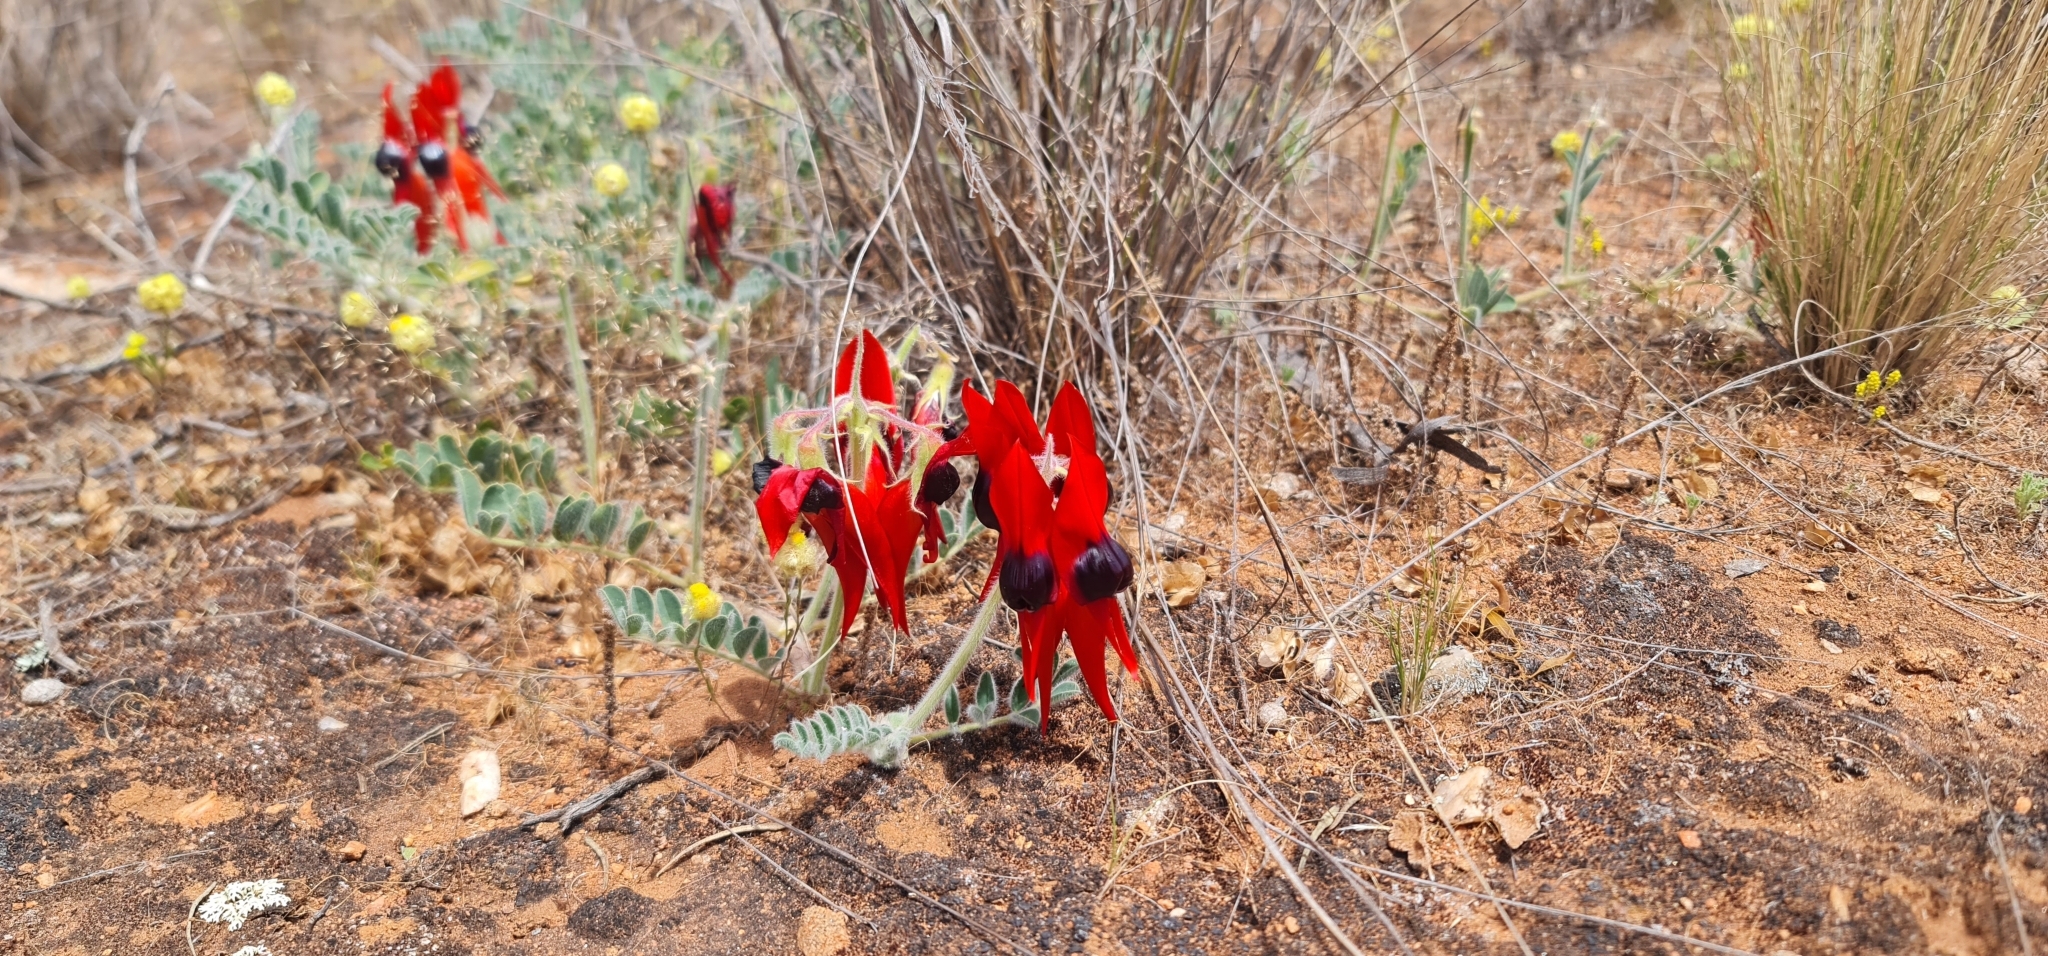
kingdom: Plantae
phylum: Tracheophyta
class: Magnoliopsida
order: Fabales
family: Fabaceae
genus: Swainsona
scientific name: Swainsona formosa
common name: Sturt's desert-pea
